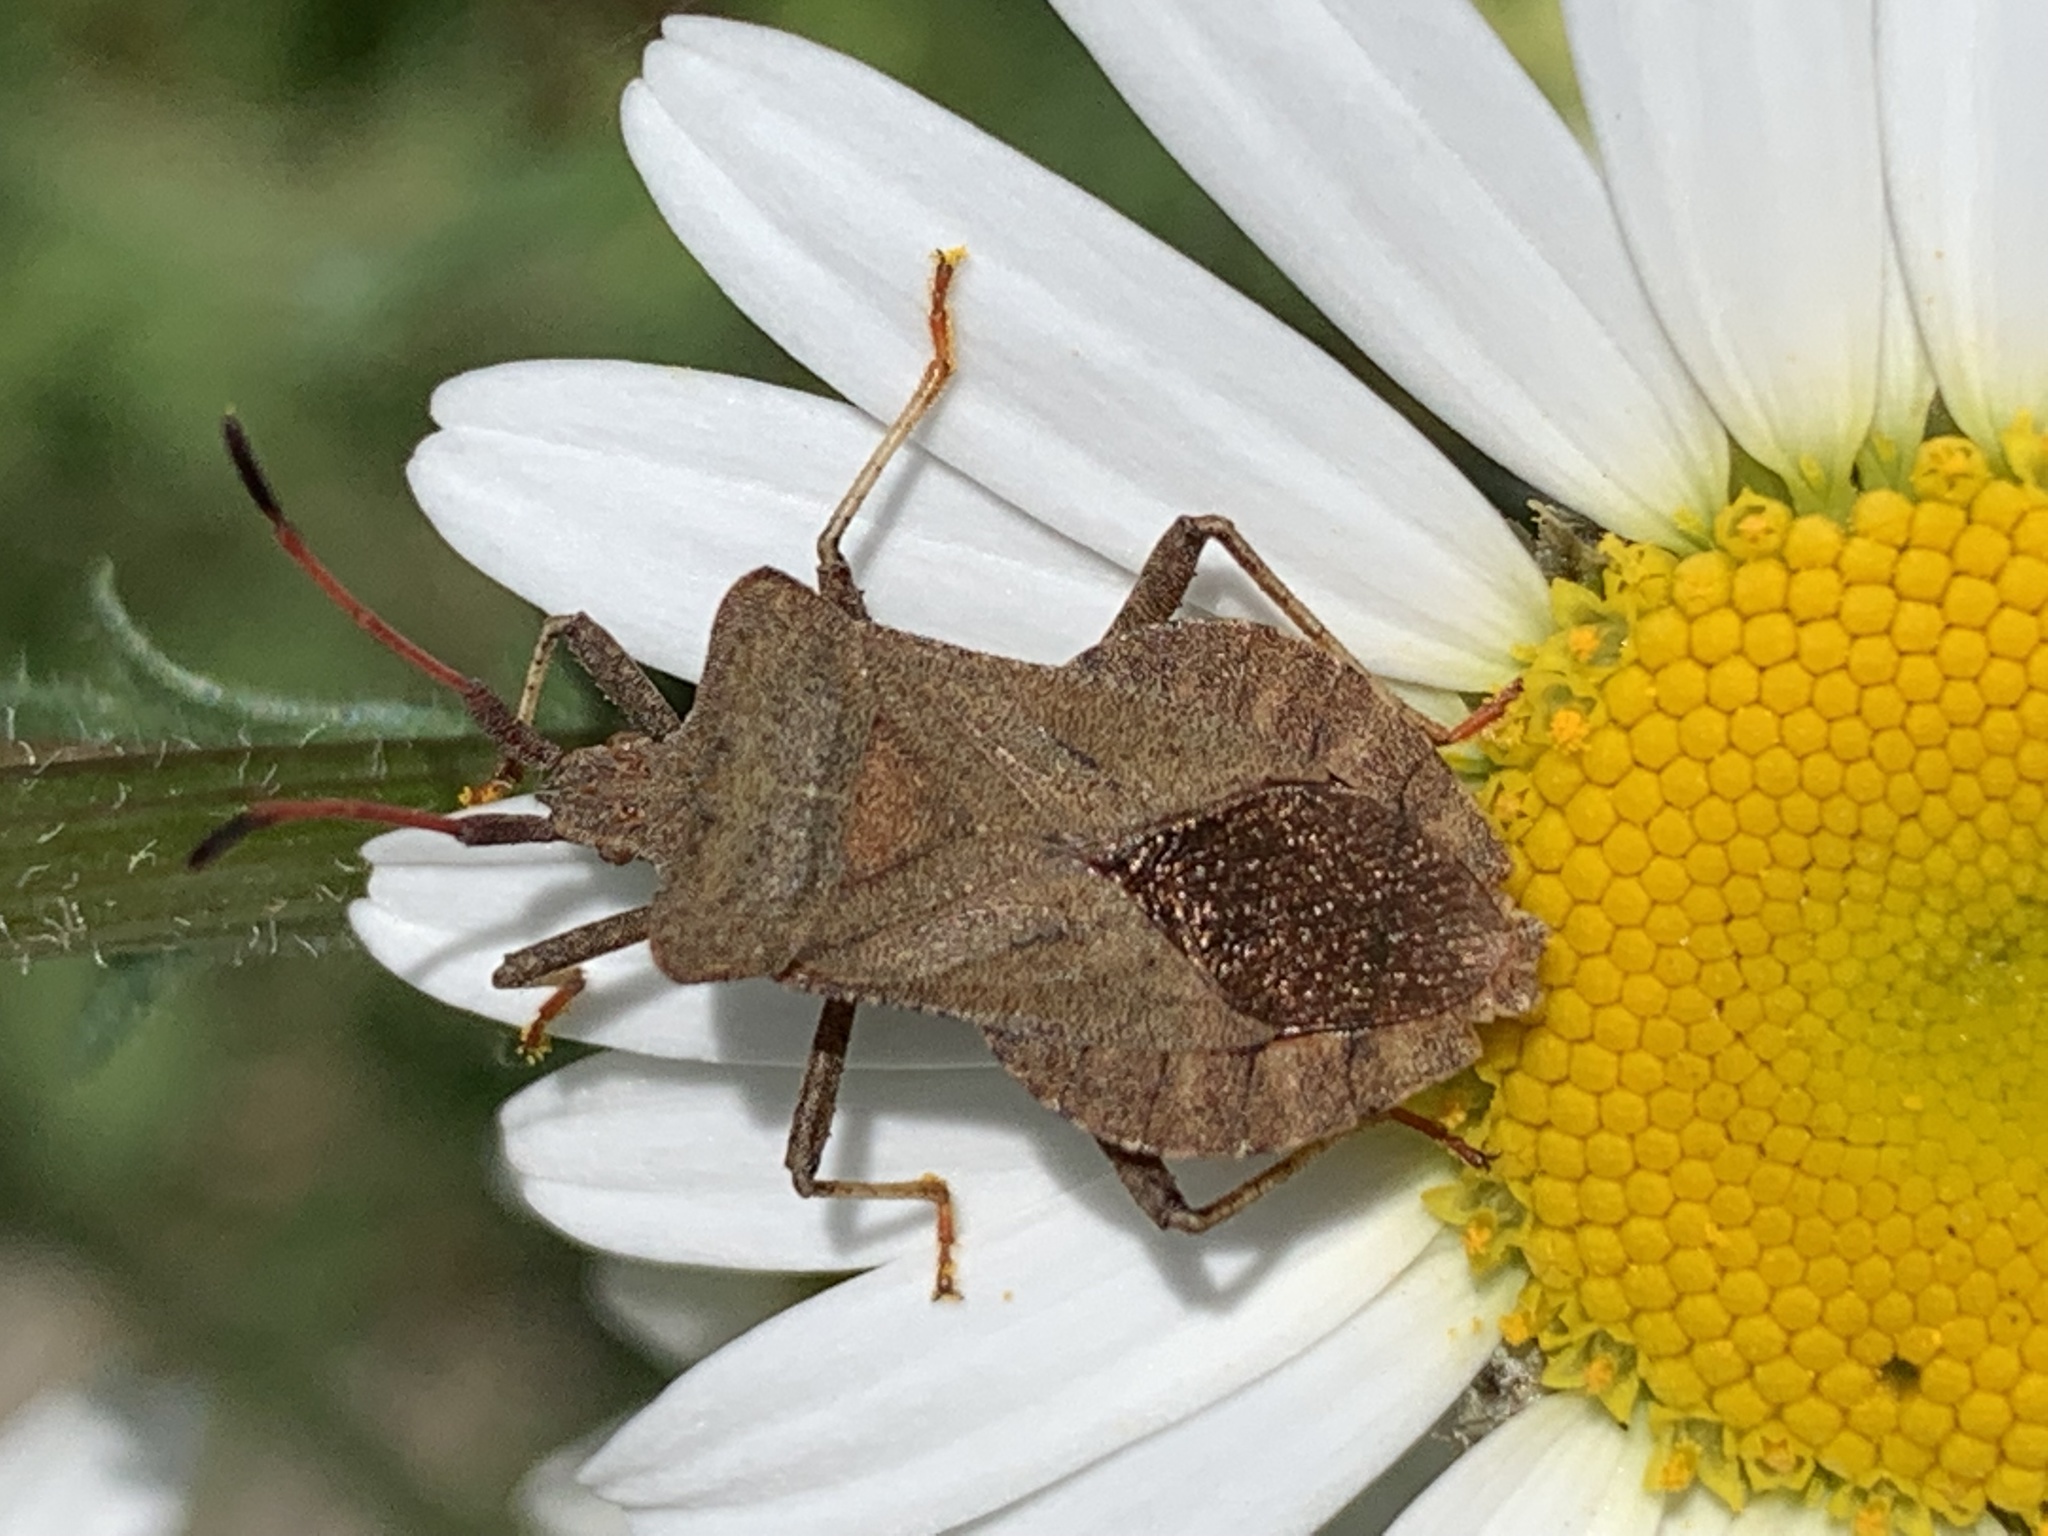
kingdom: Animalia
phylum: Arthropoda
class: Insecta
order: Hemiptera
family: Coreidae
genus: Coreus
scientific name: Coreus marginatus
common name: Dock bug
